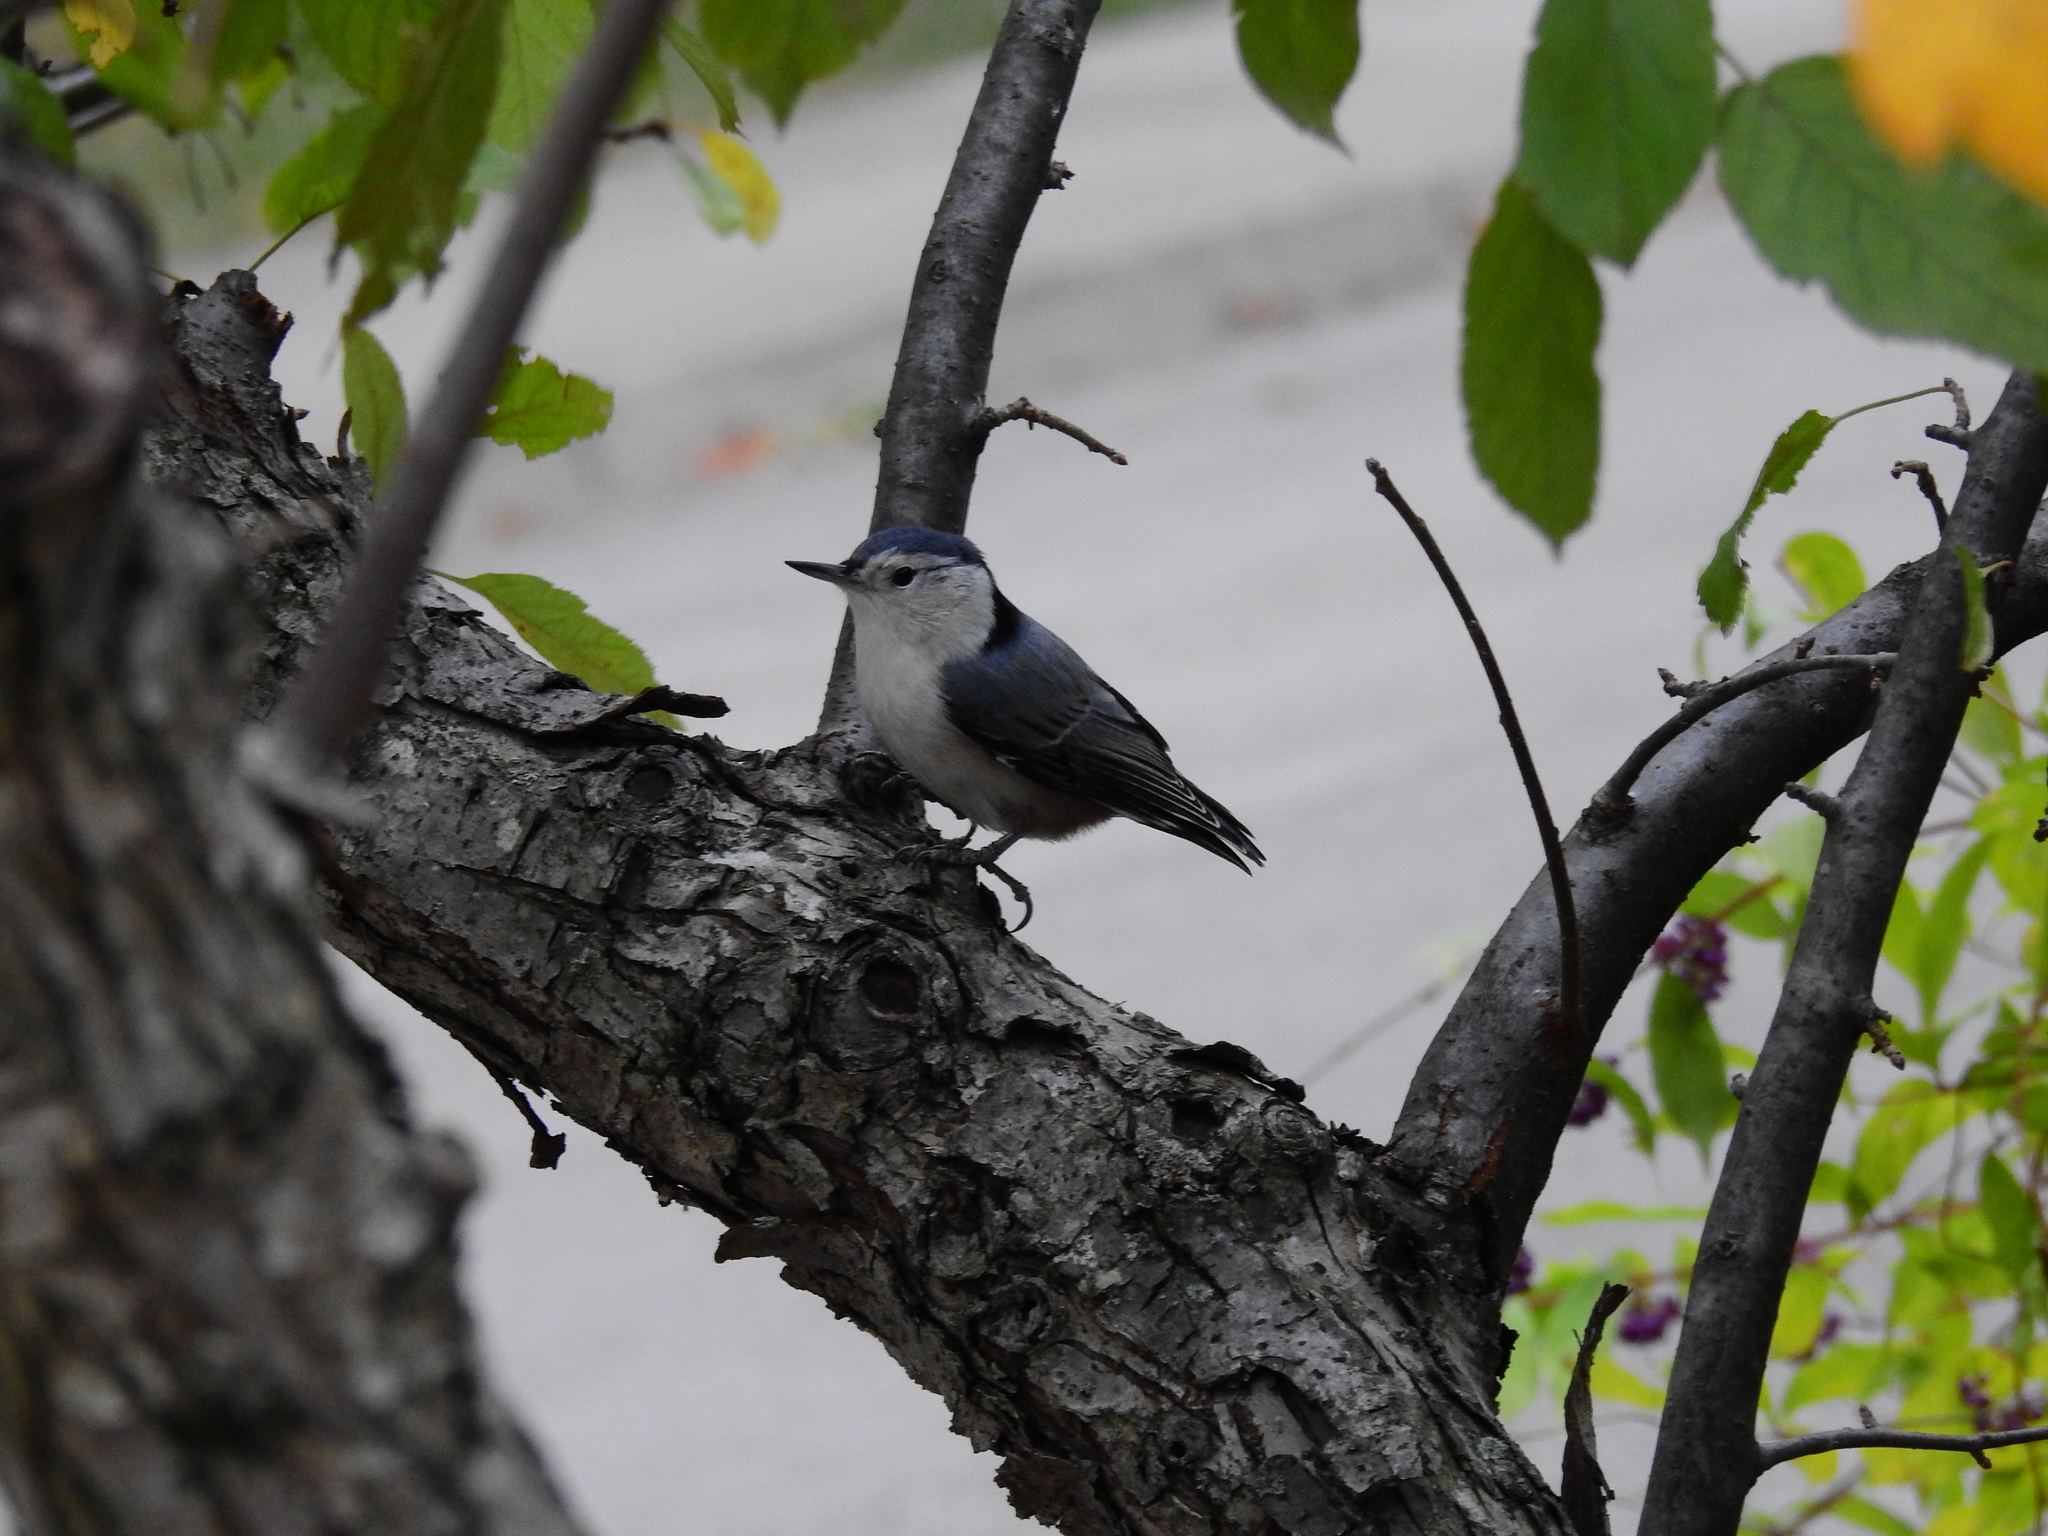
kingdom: Animalia
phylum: Chordata
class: Aves
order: Passeriformes
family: Sittidae
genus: Sitta
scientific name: Sitta carolinensis
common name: White-breasted nuthatch
